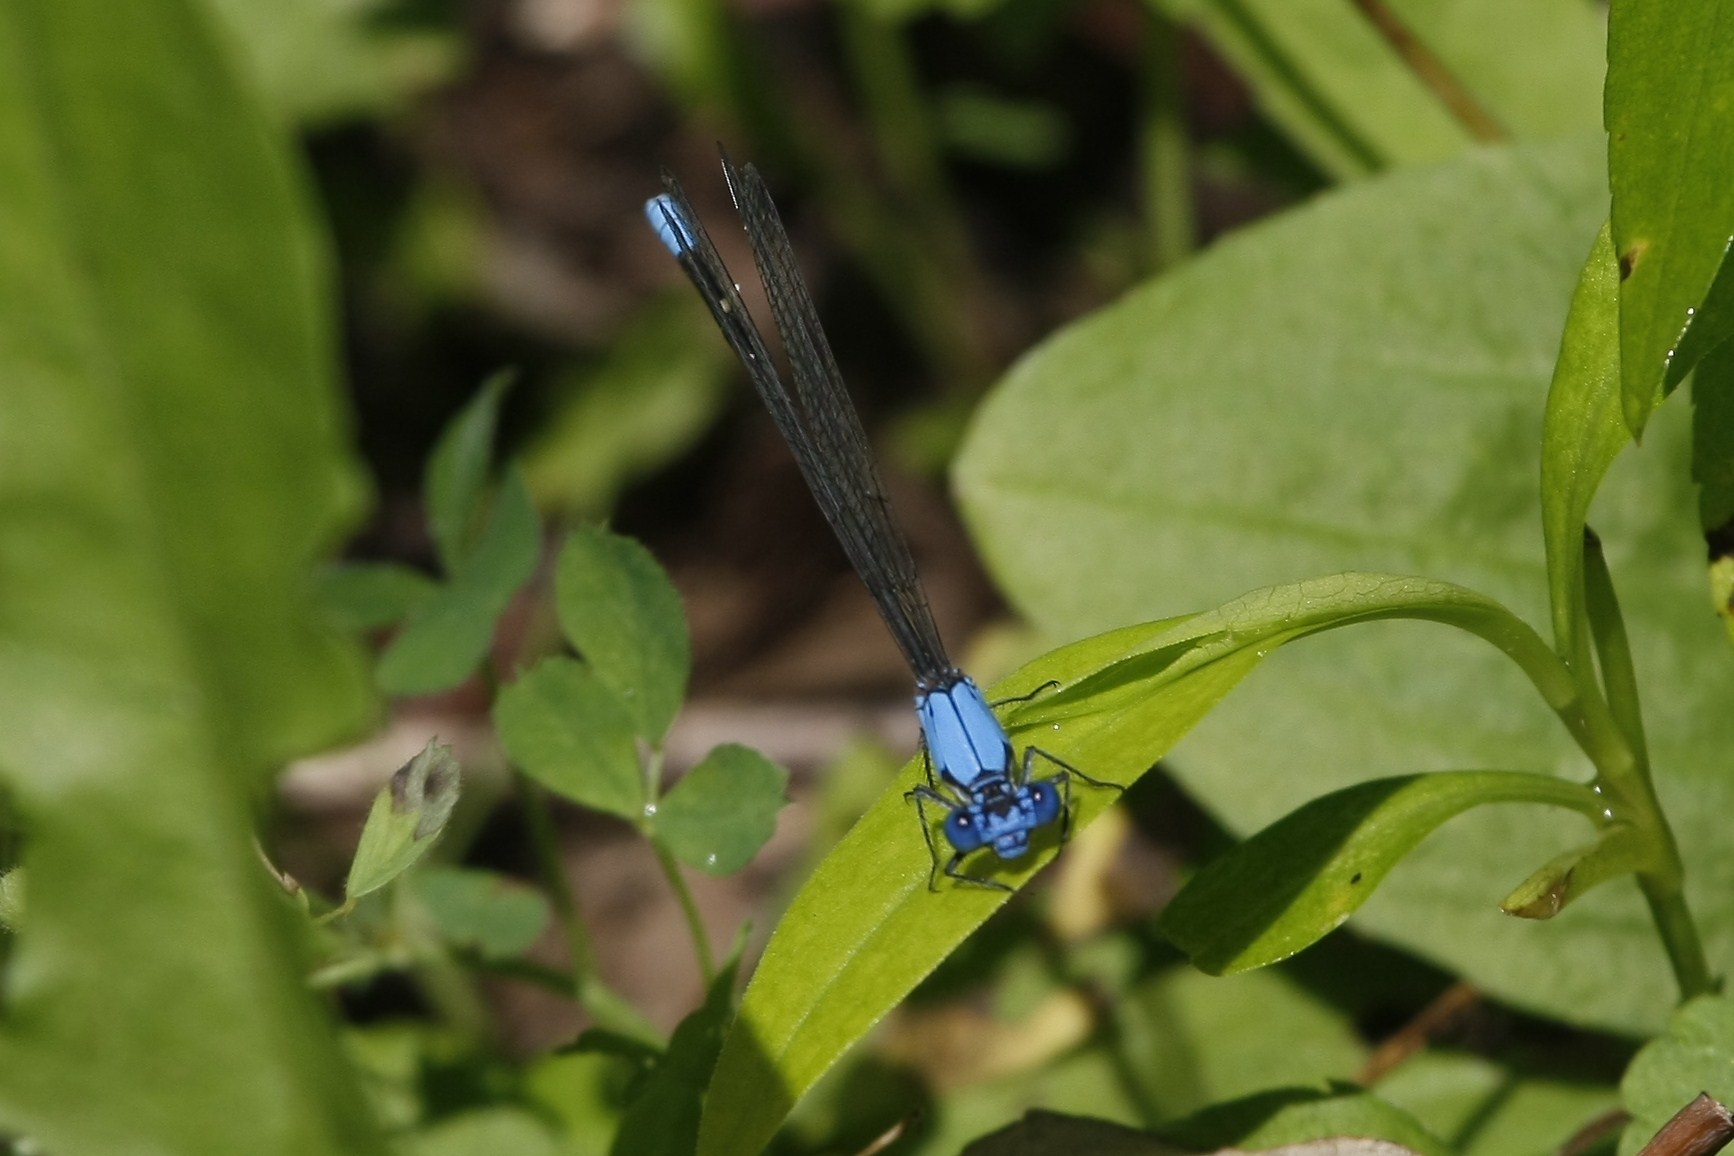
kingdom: Animalia
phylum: Arthropoda
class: Insecta
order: Odonata
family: Coenagrionidae
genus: Argia
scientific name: Argia apicalis
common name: Blue-fronted dancer
